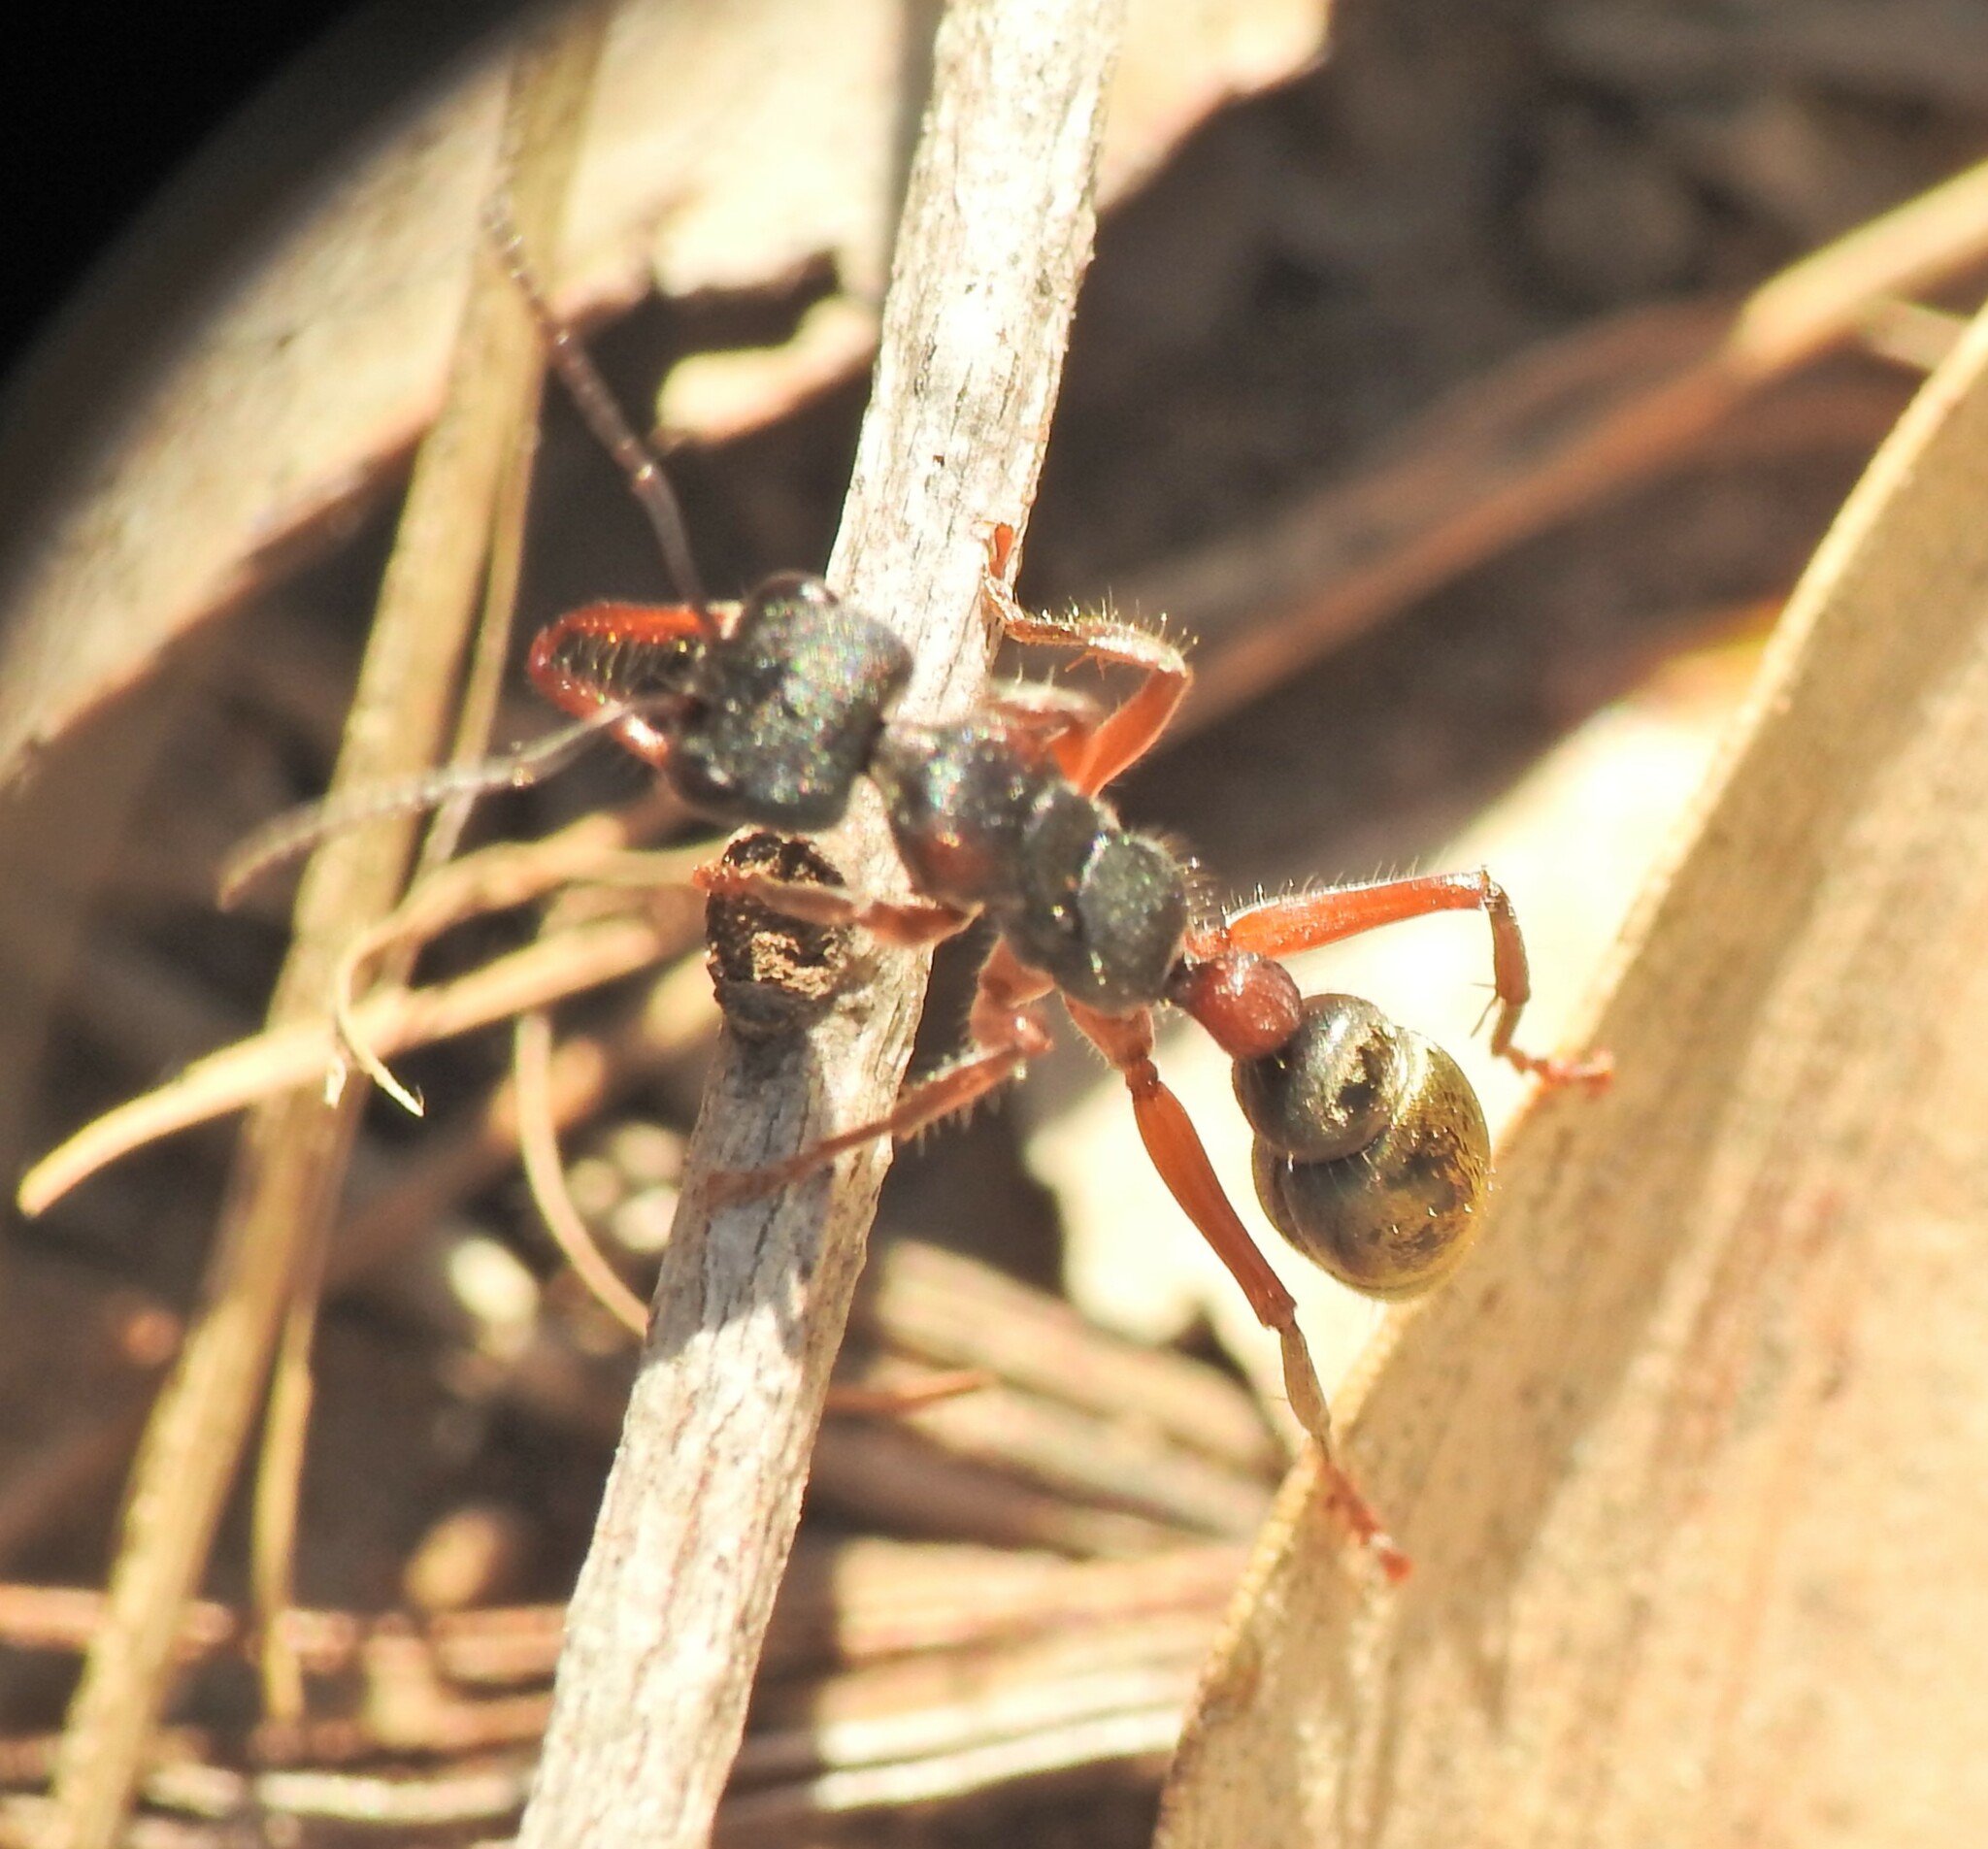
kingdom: Animalia
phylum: Arthropoda
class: Insecta
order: Hymenoptera
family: Formicidae
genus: Myrmecia
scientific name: Myrmecia chrysogaster
